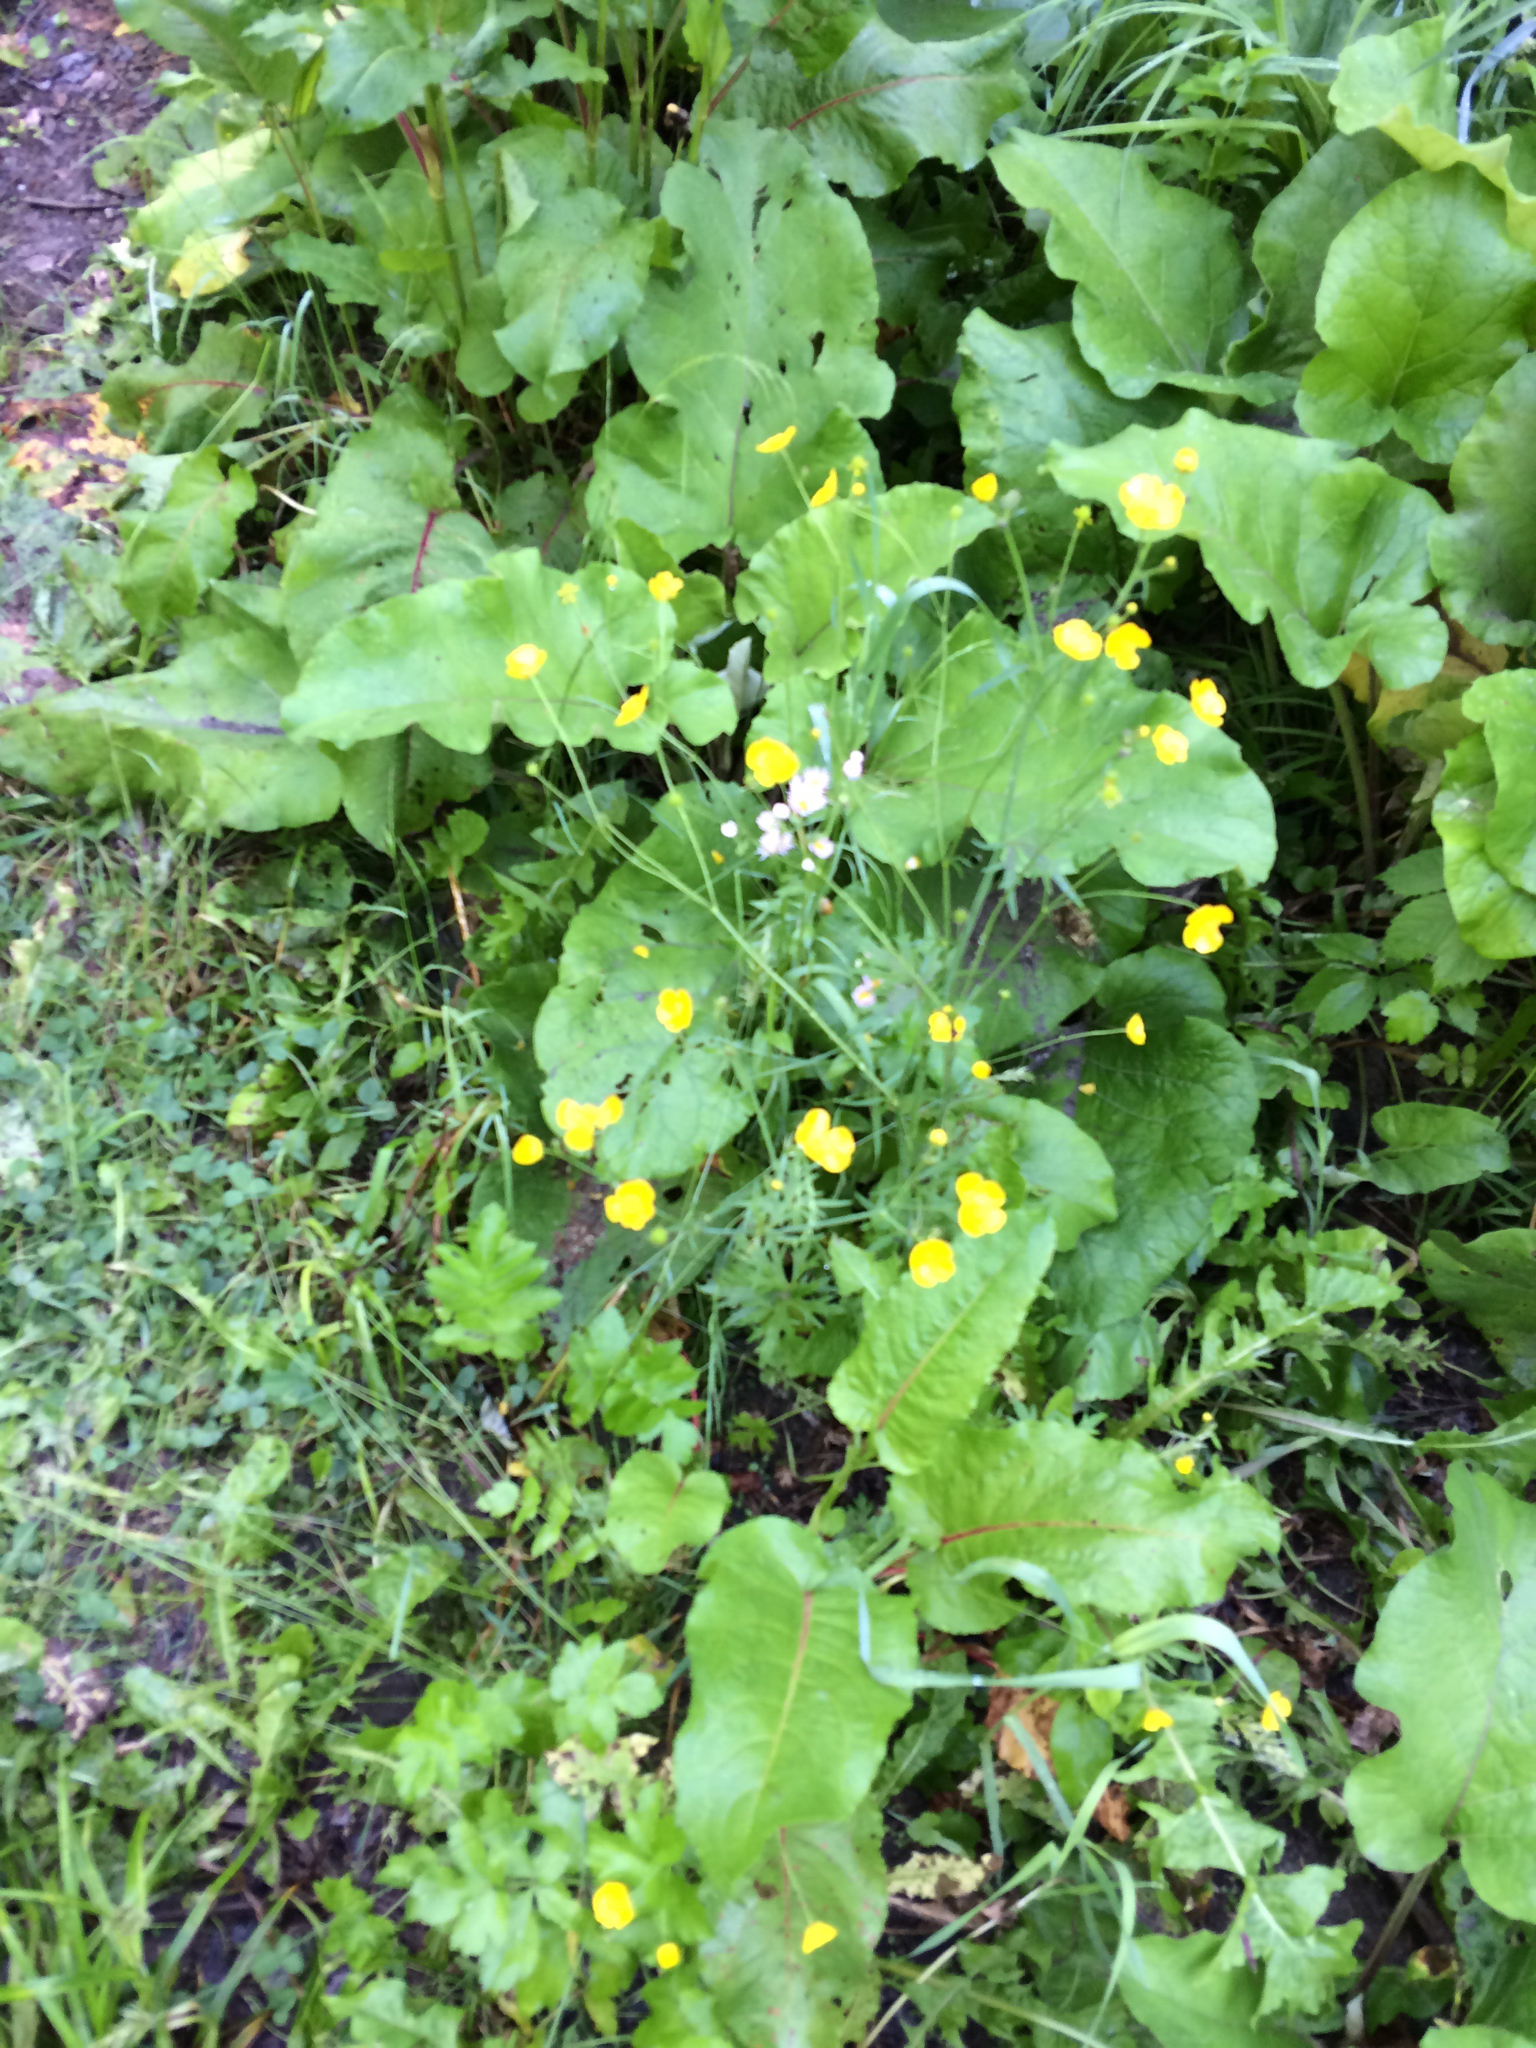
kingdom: Plantae
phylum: Tracheophyta
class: Magnoliopsida
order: Ranunculales
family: Ranunculaceae
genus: Ranunculus
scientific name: Ranunculus acris
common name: Meadow buttercup
